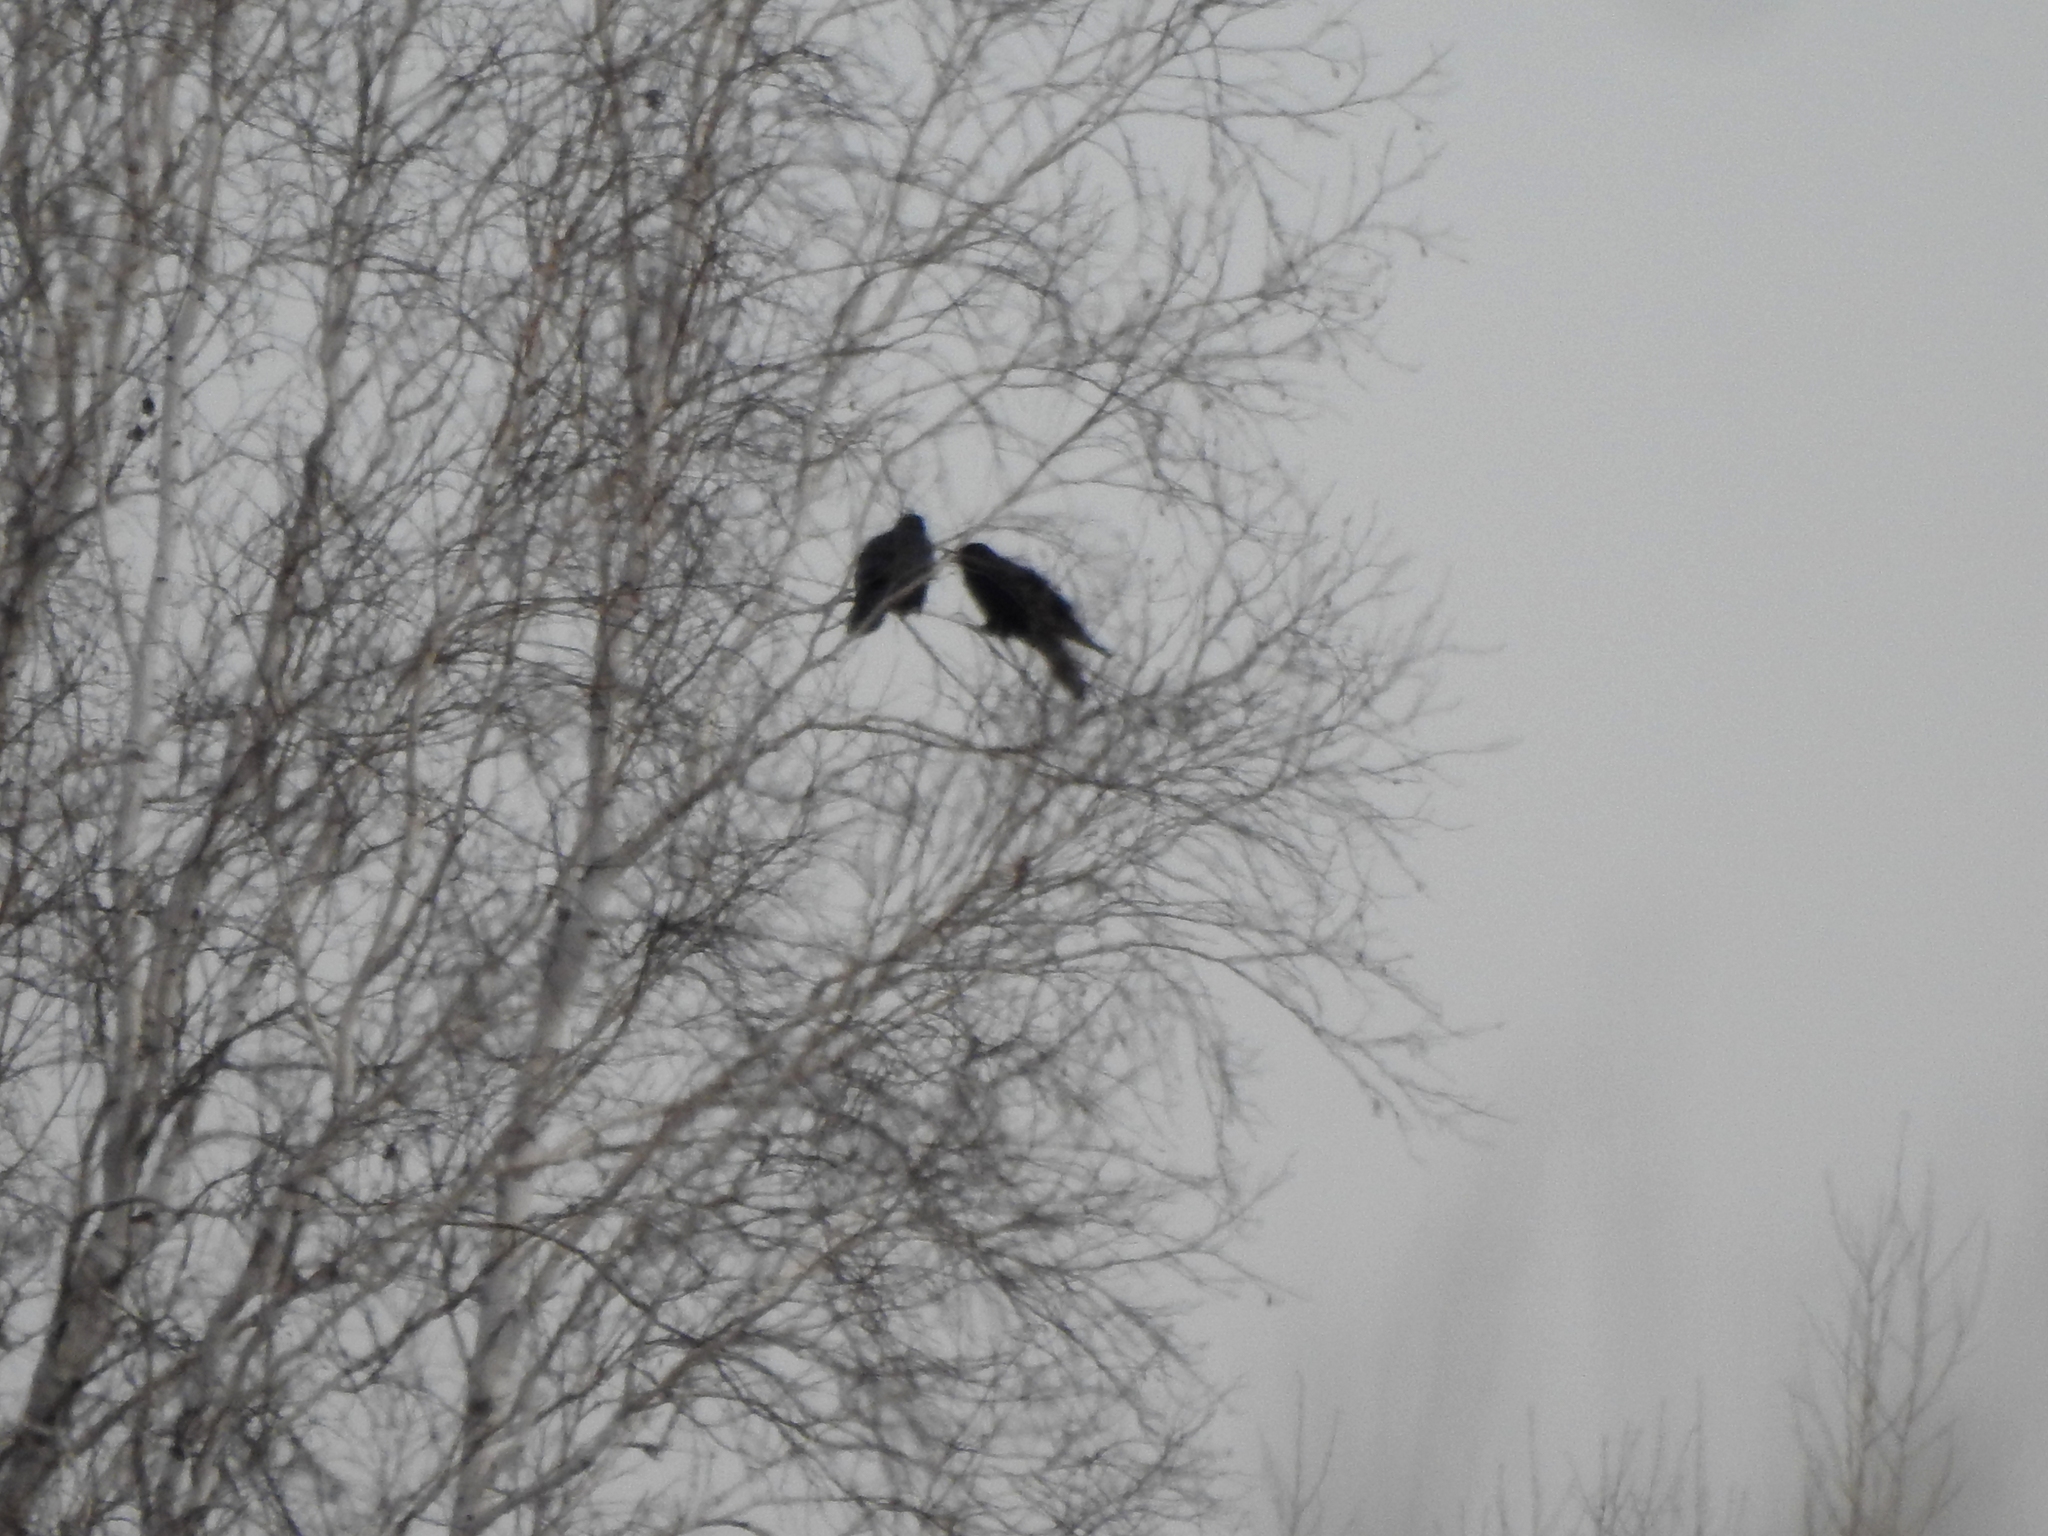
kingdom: Animalia
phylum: Chordata
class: Aves
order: Passeriformes
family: Corvidae
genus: Corvus
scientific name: Corvus corax
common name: Common raven
